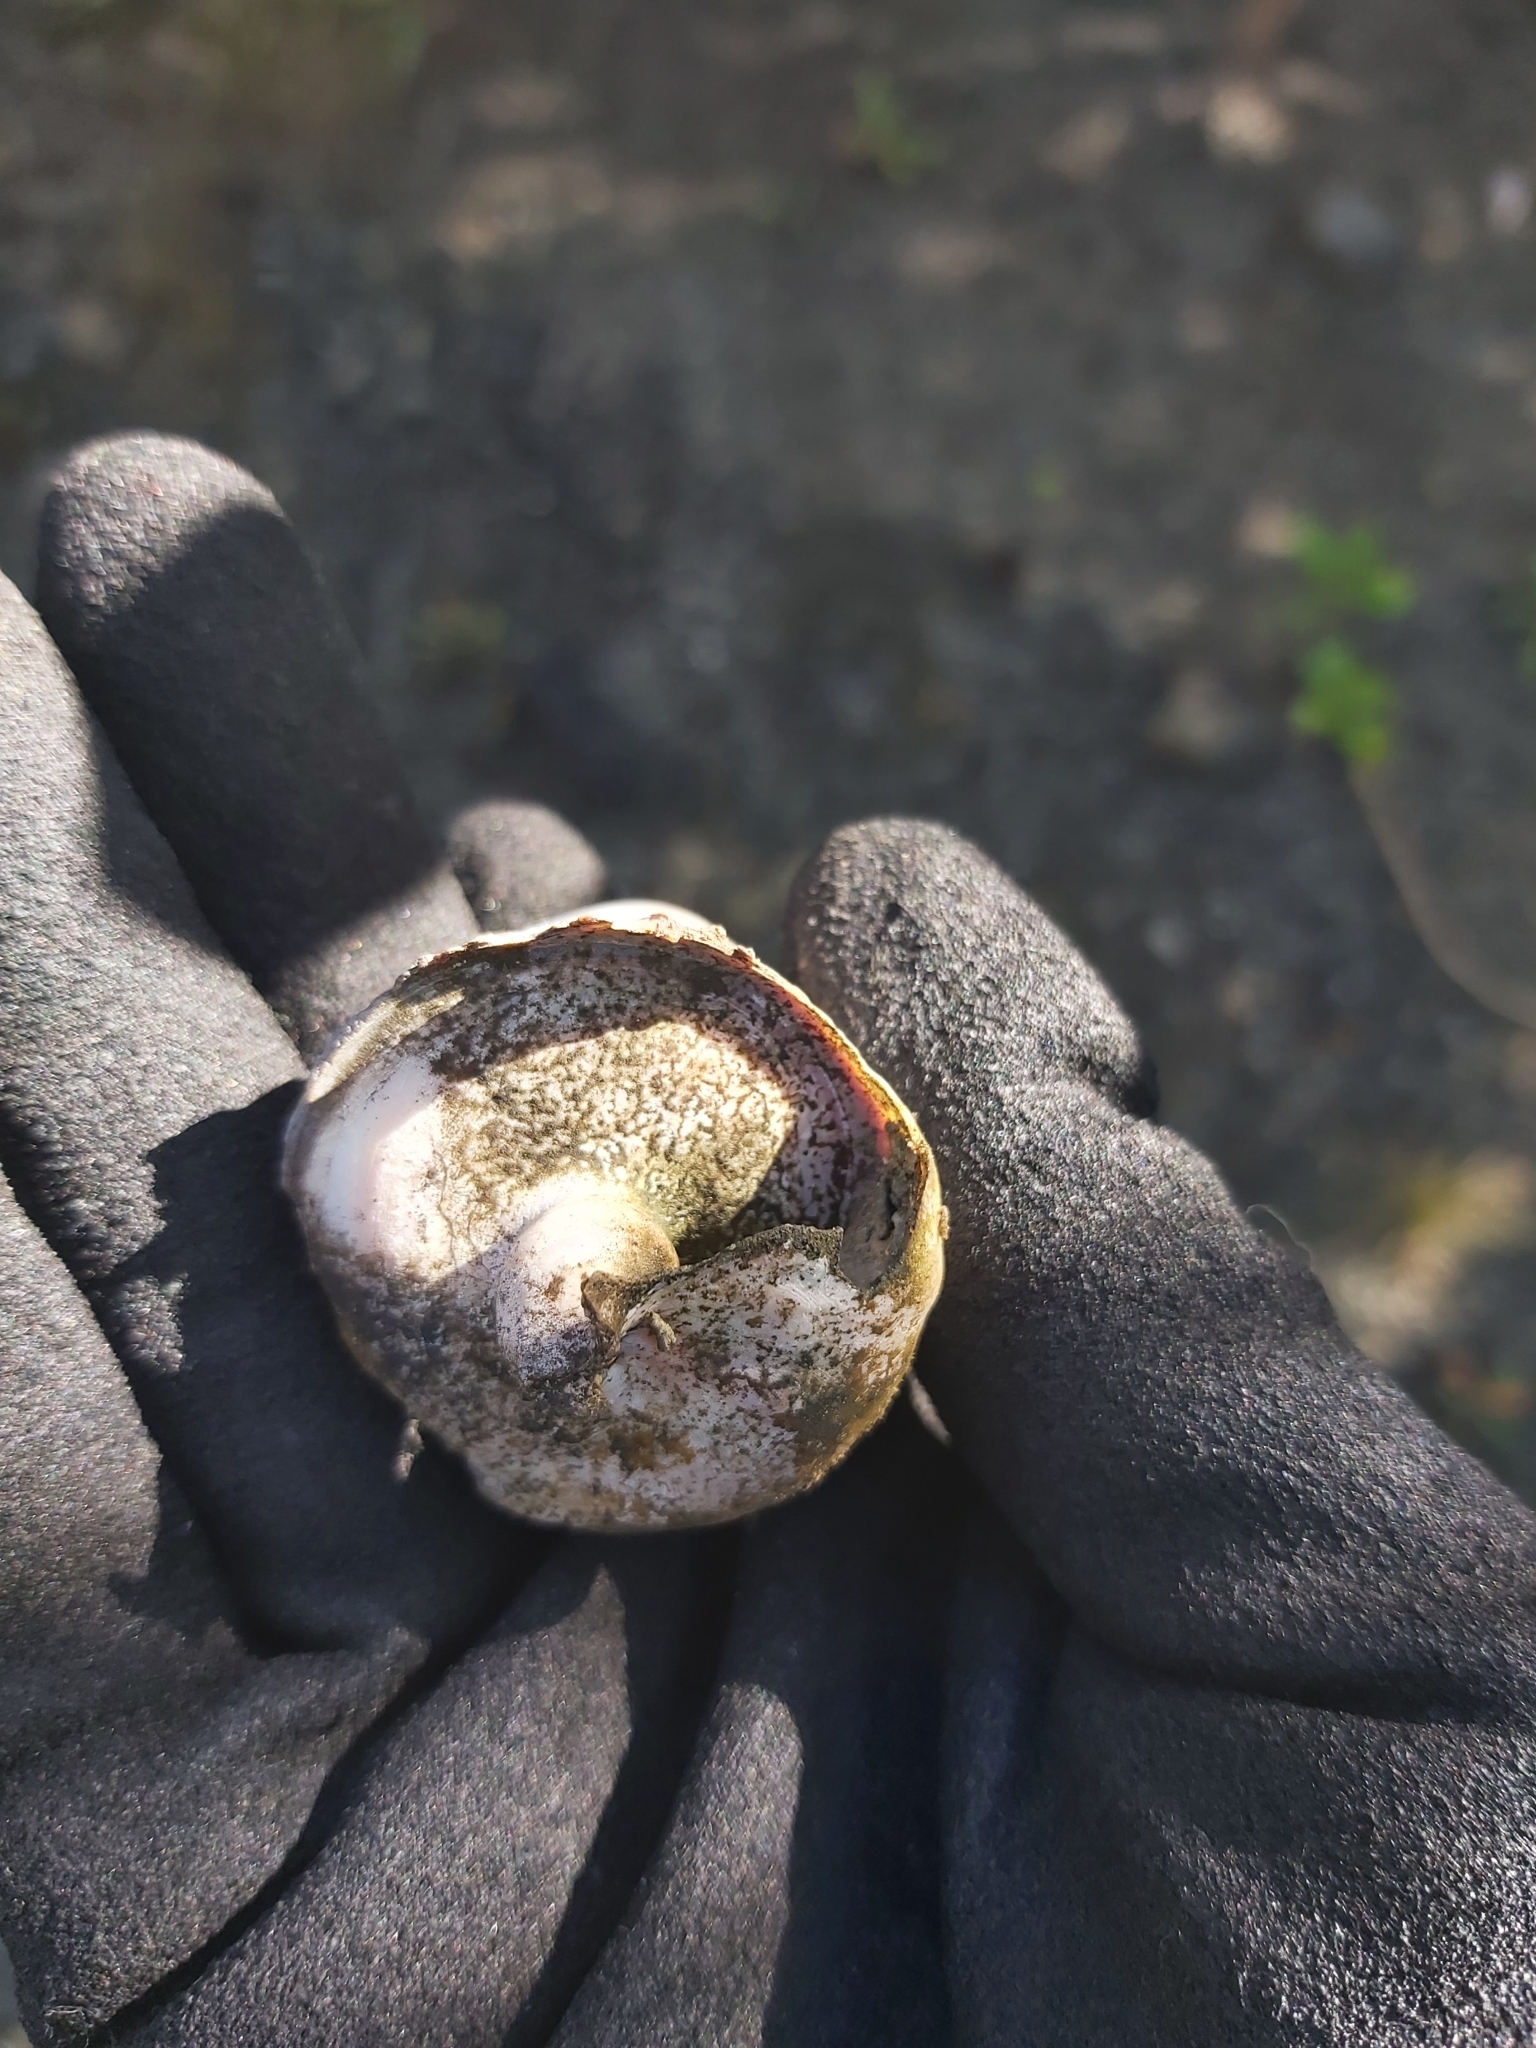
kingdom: Animalia
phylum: Mollusca
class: Gastropoda
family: Potamididae
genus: Telescopium
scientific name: Telescopium telescopium
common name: Telescope creeper
